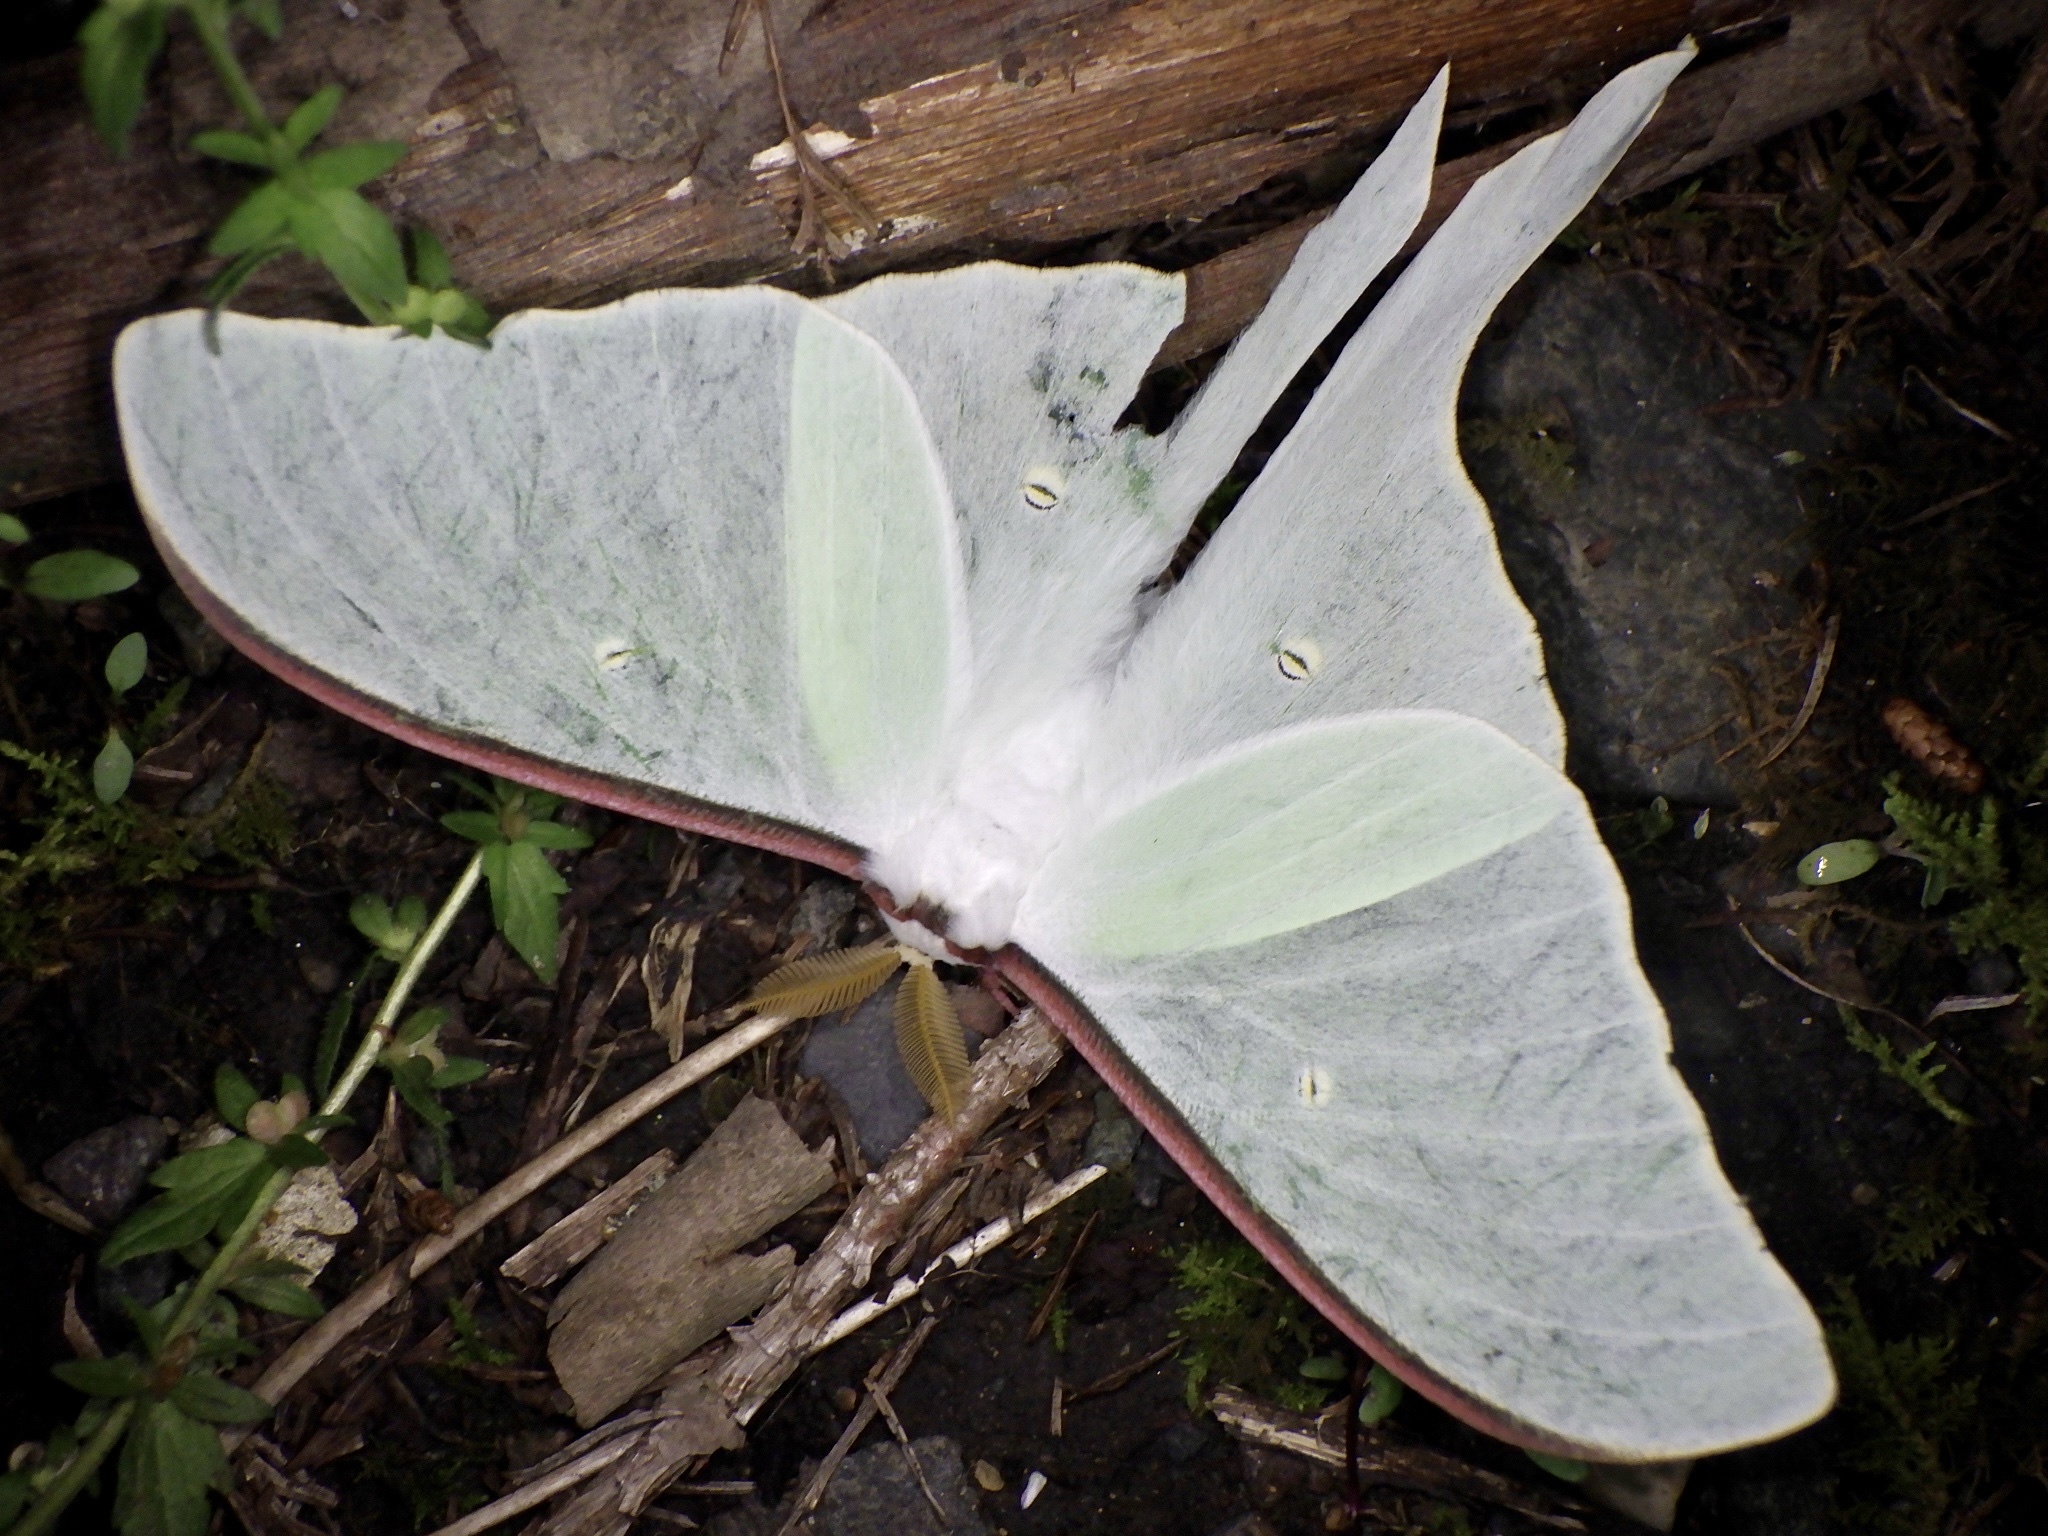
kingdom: Animalia
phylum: Arthropoda
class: Insecta
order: Lepidoptera
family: Saturniidae
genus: Actias
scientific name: Actias aliena
